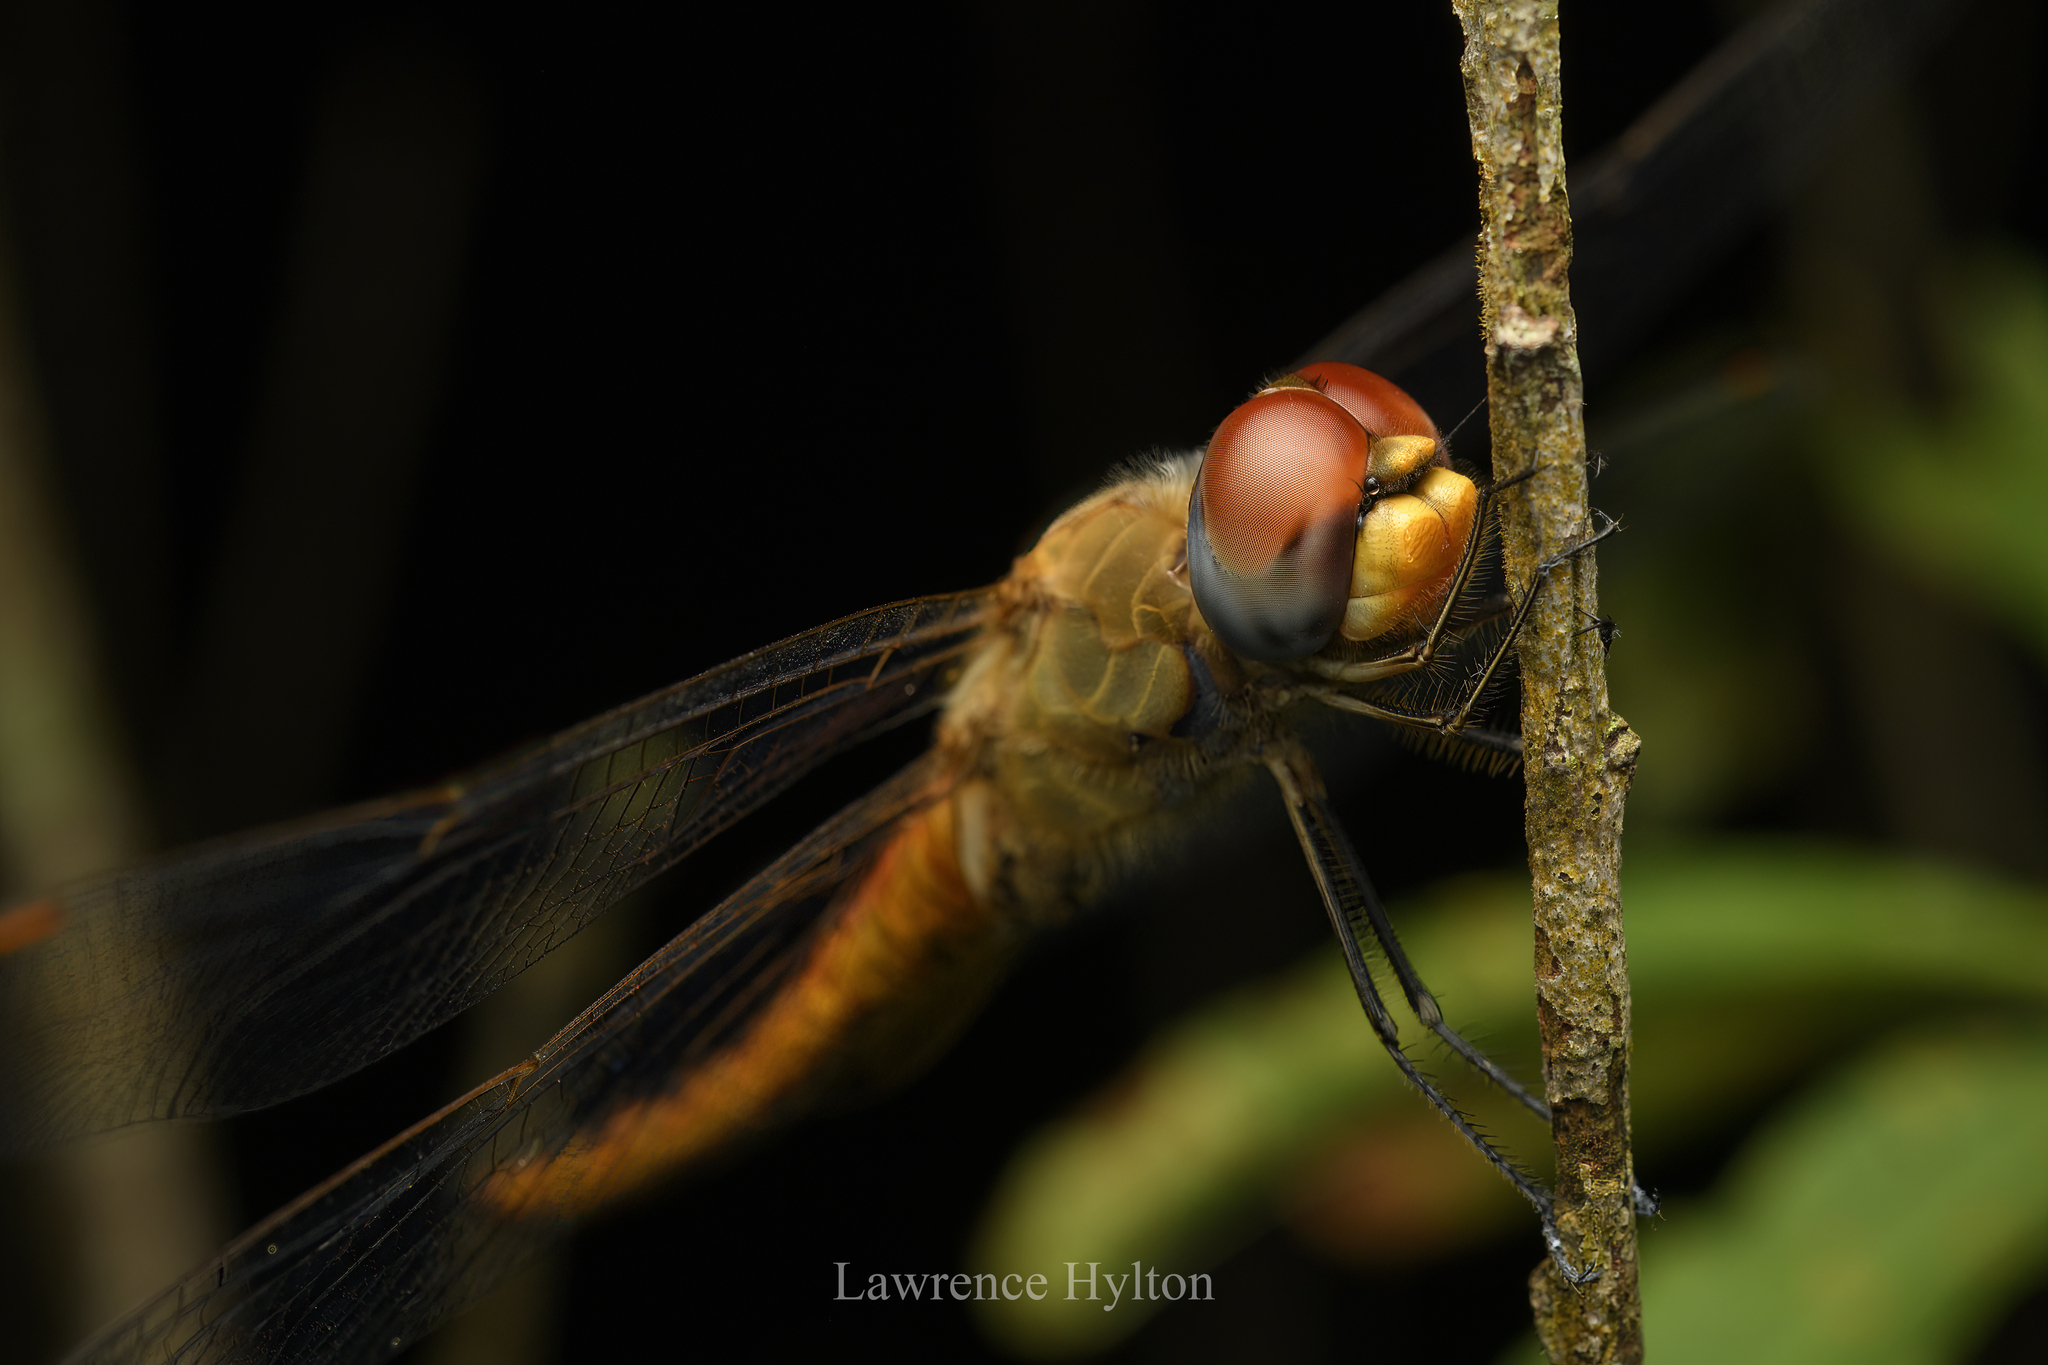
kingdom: Animalia
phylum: Arthropoda
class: Insecta
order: Odonata
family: Libellulidae
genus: Pantala
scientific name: Pantala flavescens
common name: Wandering glider
